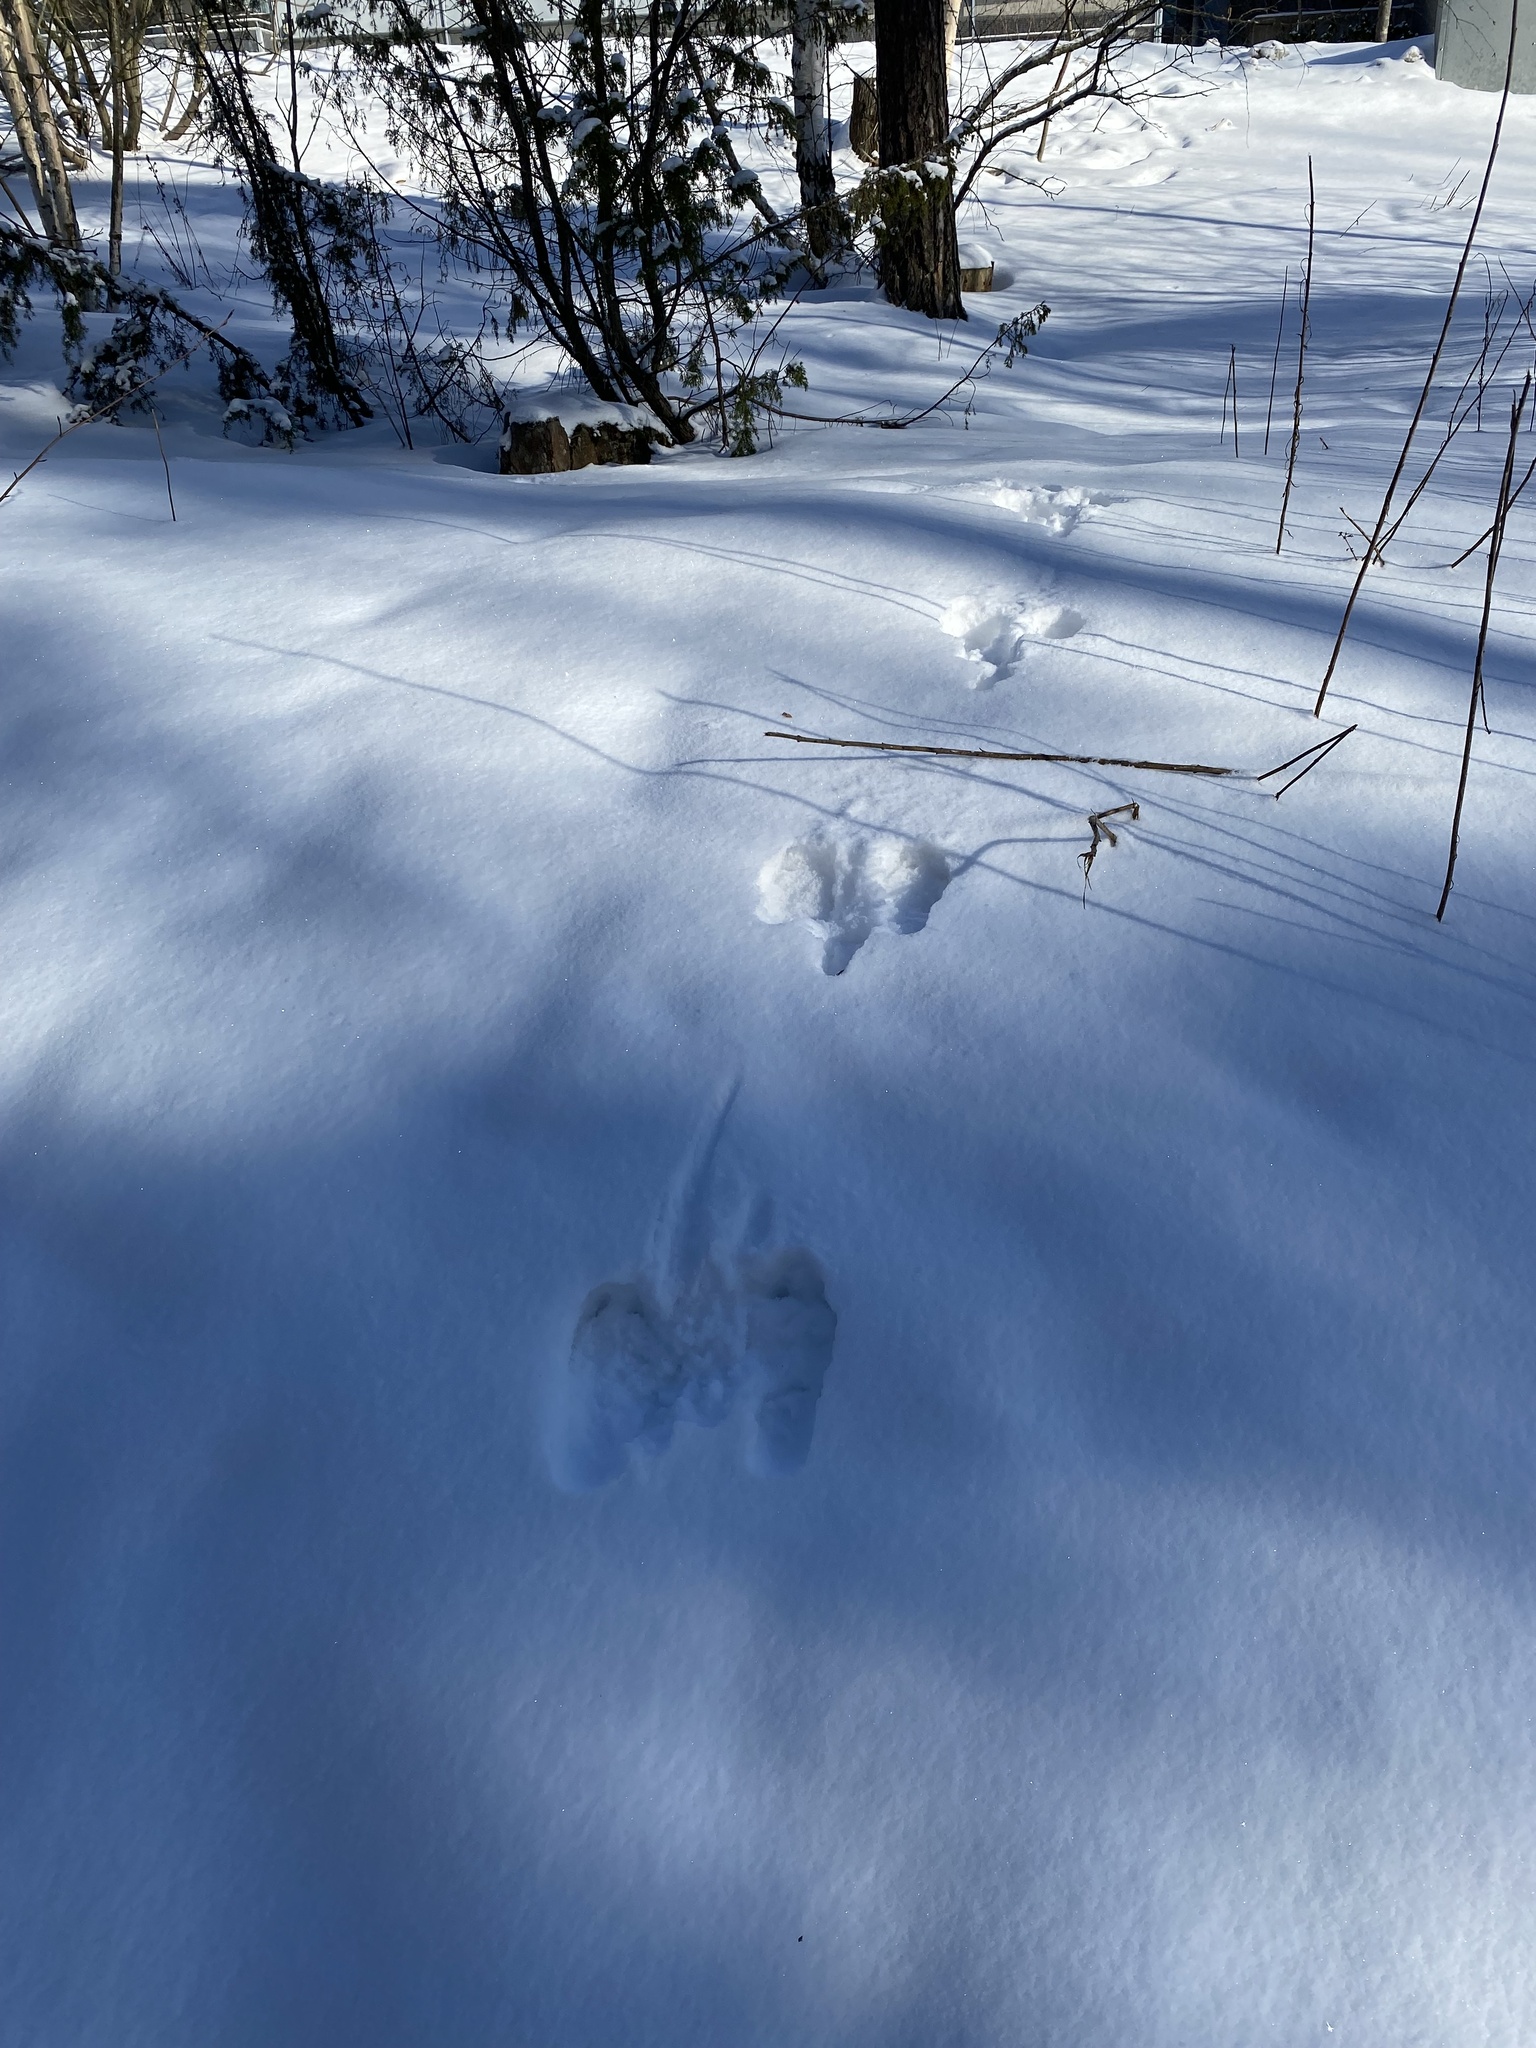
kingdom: Animalia
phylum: Chordata
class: Mammalia
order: Lagomorpha
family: Leporidae
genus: Lepus
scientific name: Lepus europaeus
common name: European hare
